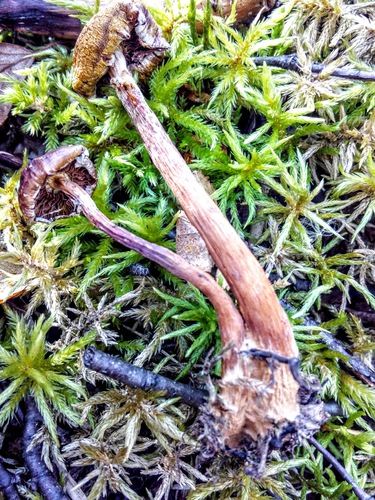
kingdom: Fungi
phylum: Basidiomycota
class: Agaricomycetes
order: Agaricales
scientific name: Agaricales
